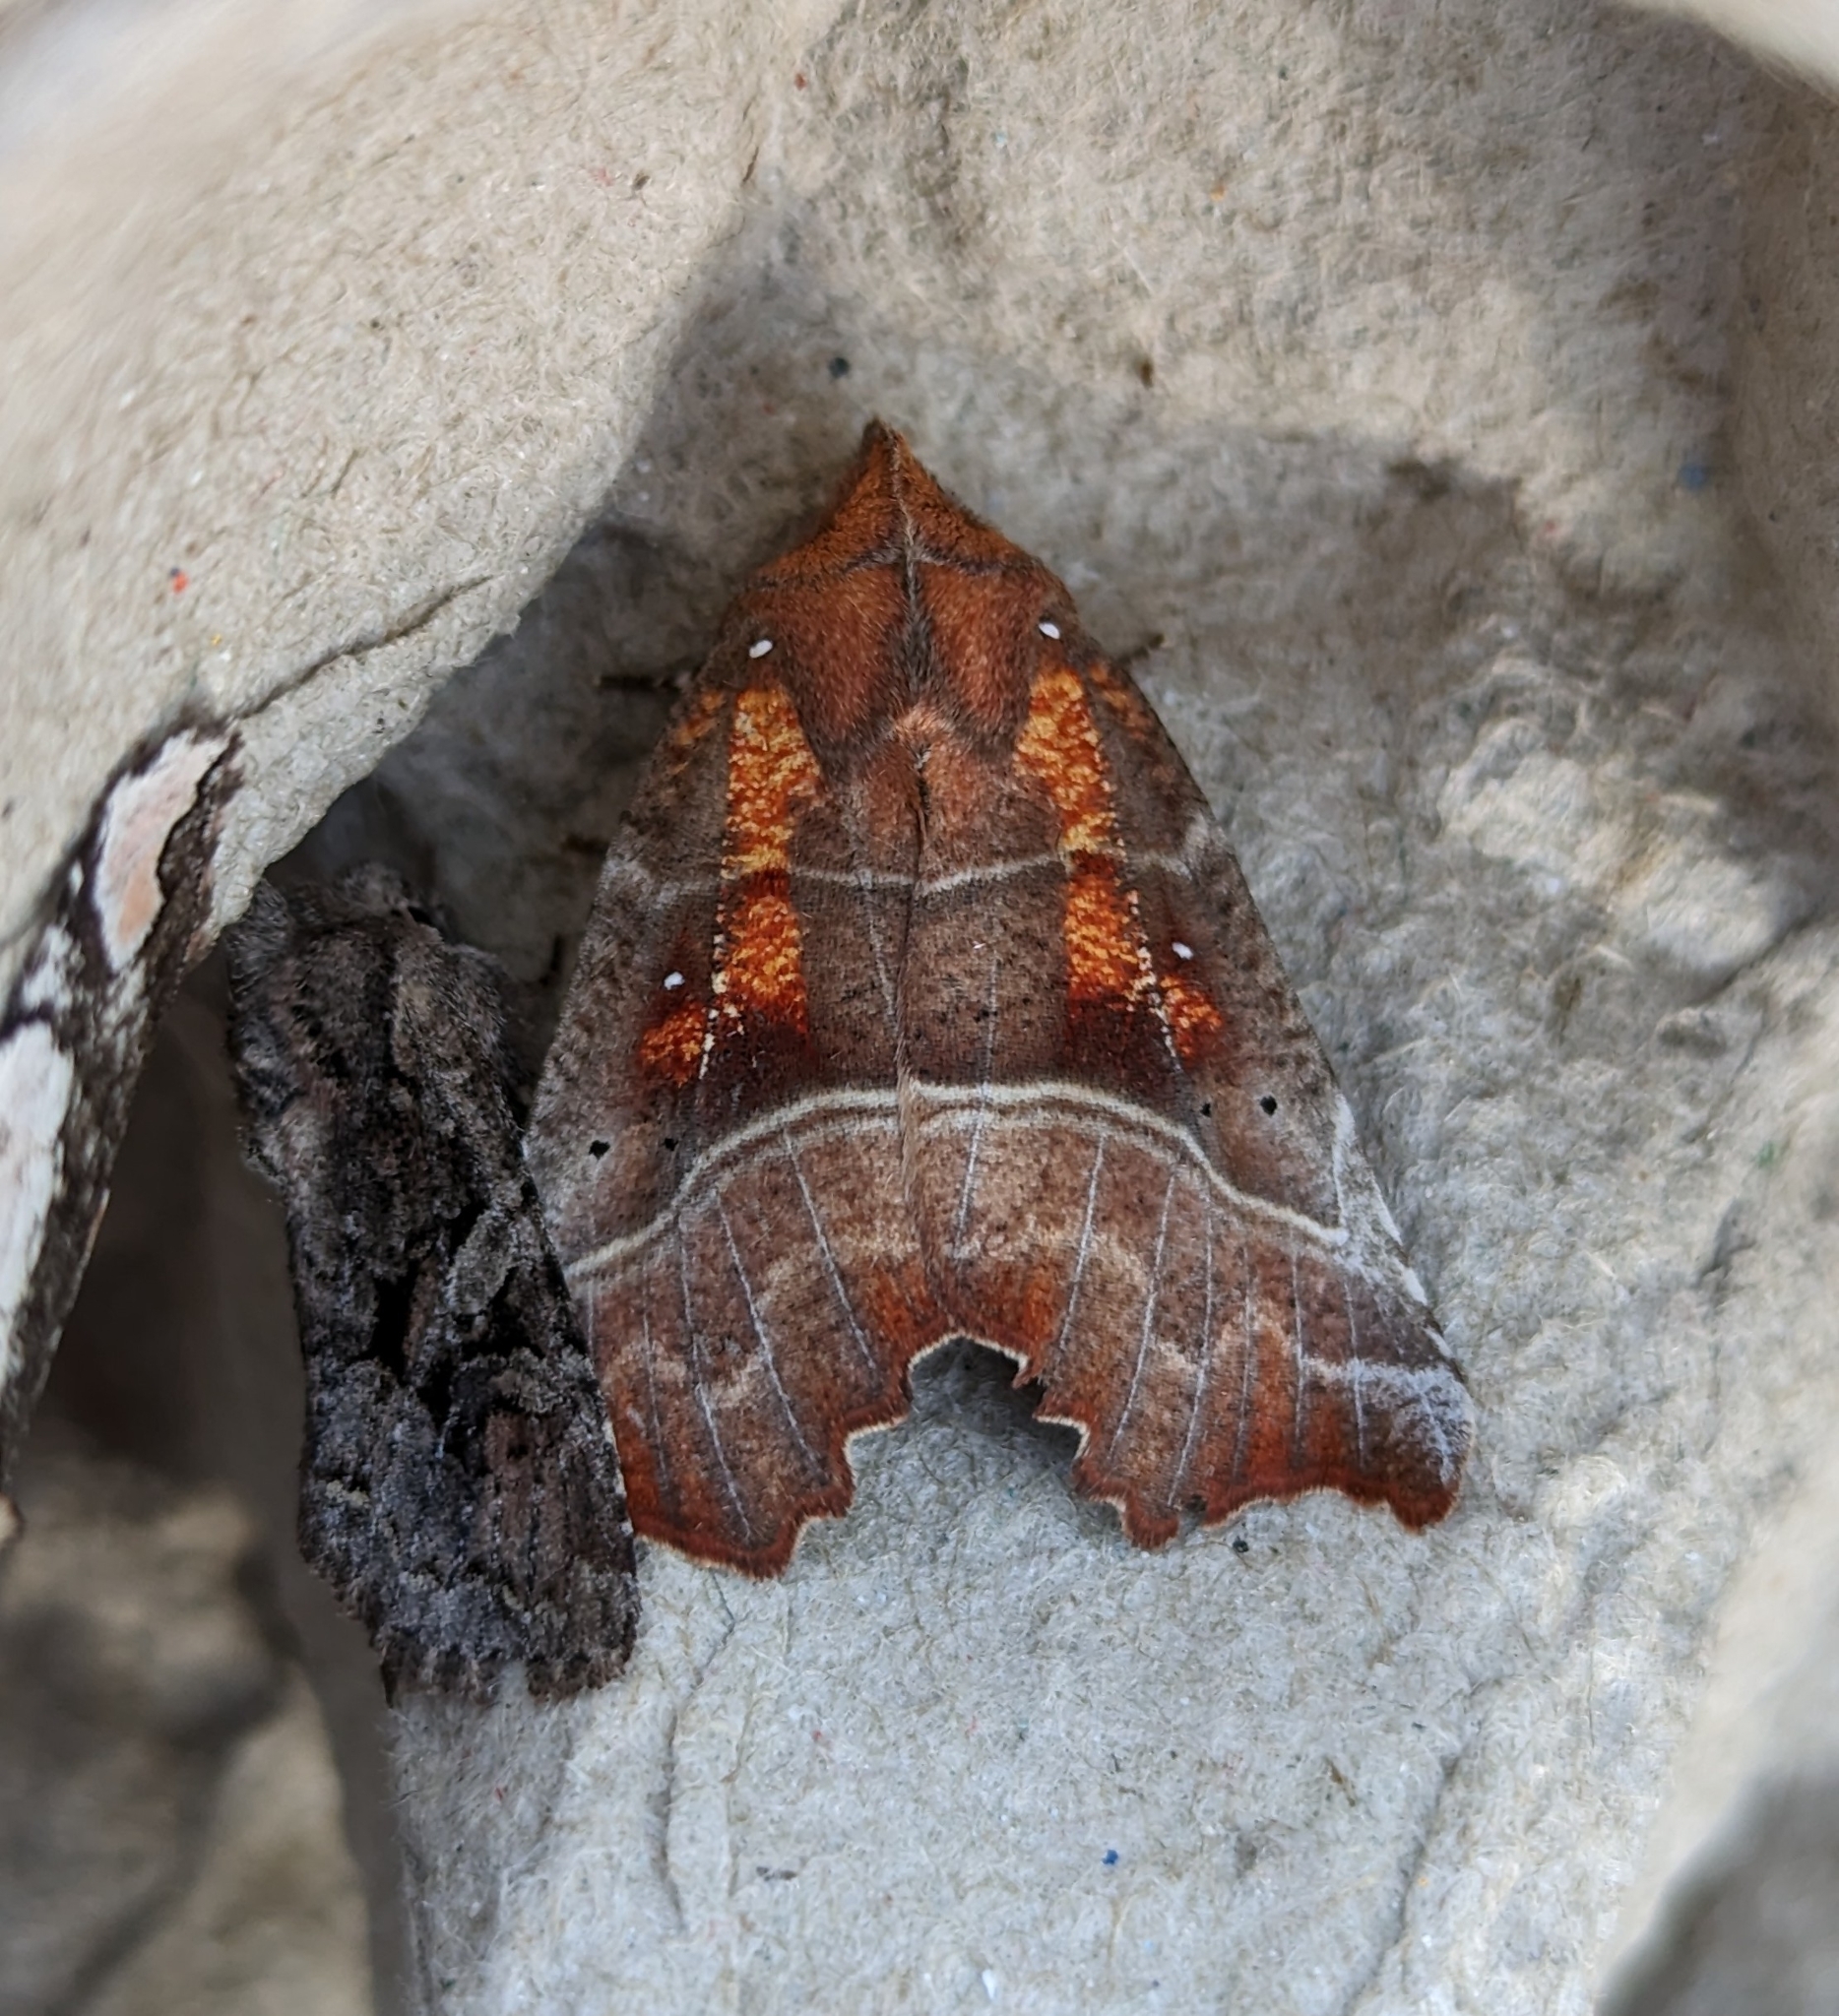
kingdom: Animalia
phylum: Arthropoda
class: Insecta
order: Lepidoptera
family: Erebidae
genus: Scoliopteryx
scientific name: Scoliopteryx libatrix
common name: Herald
